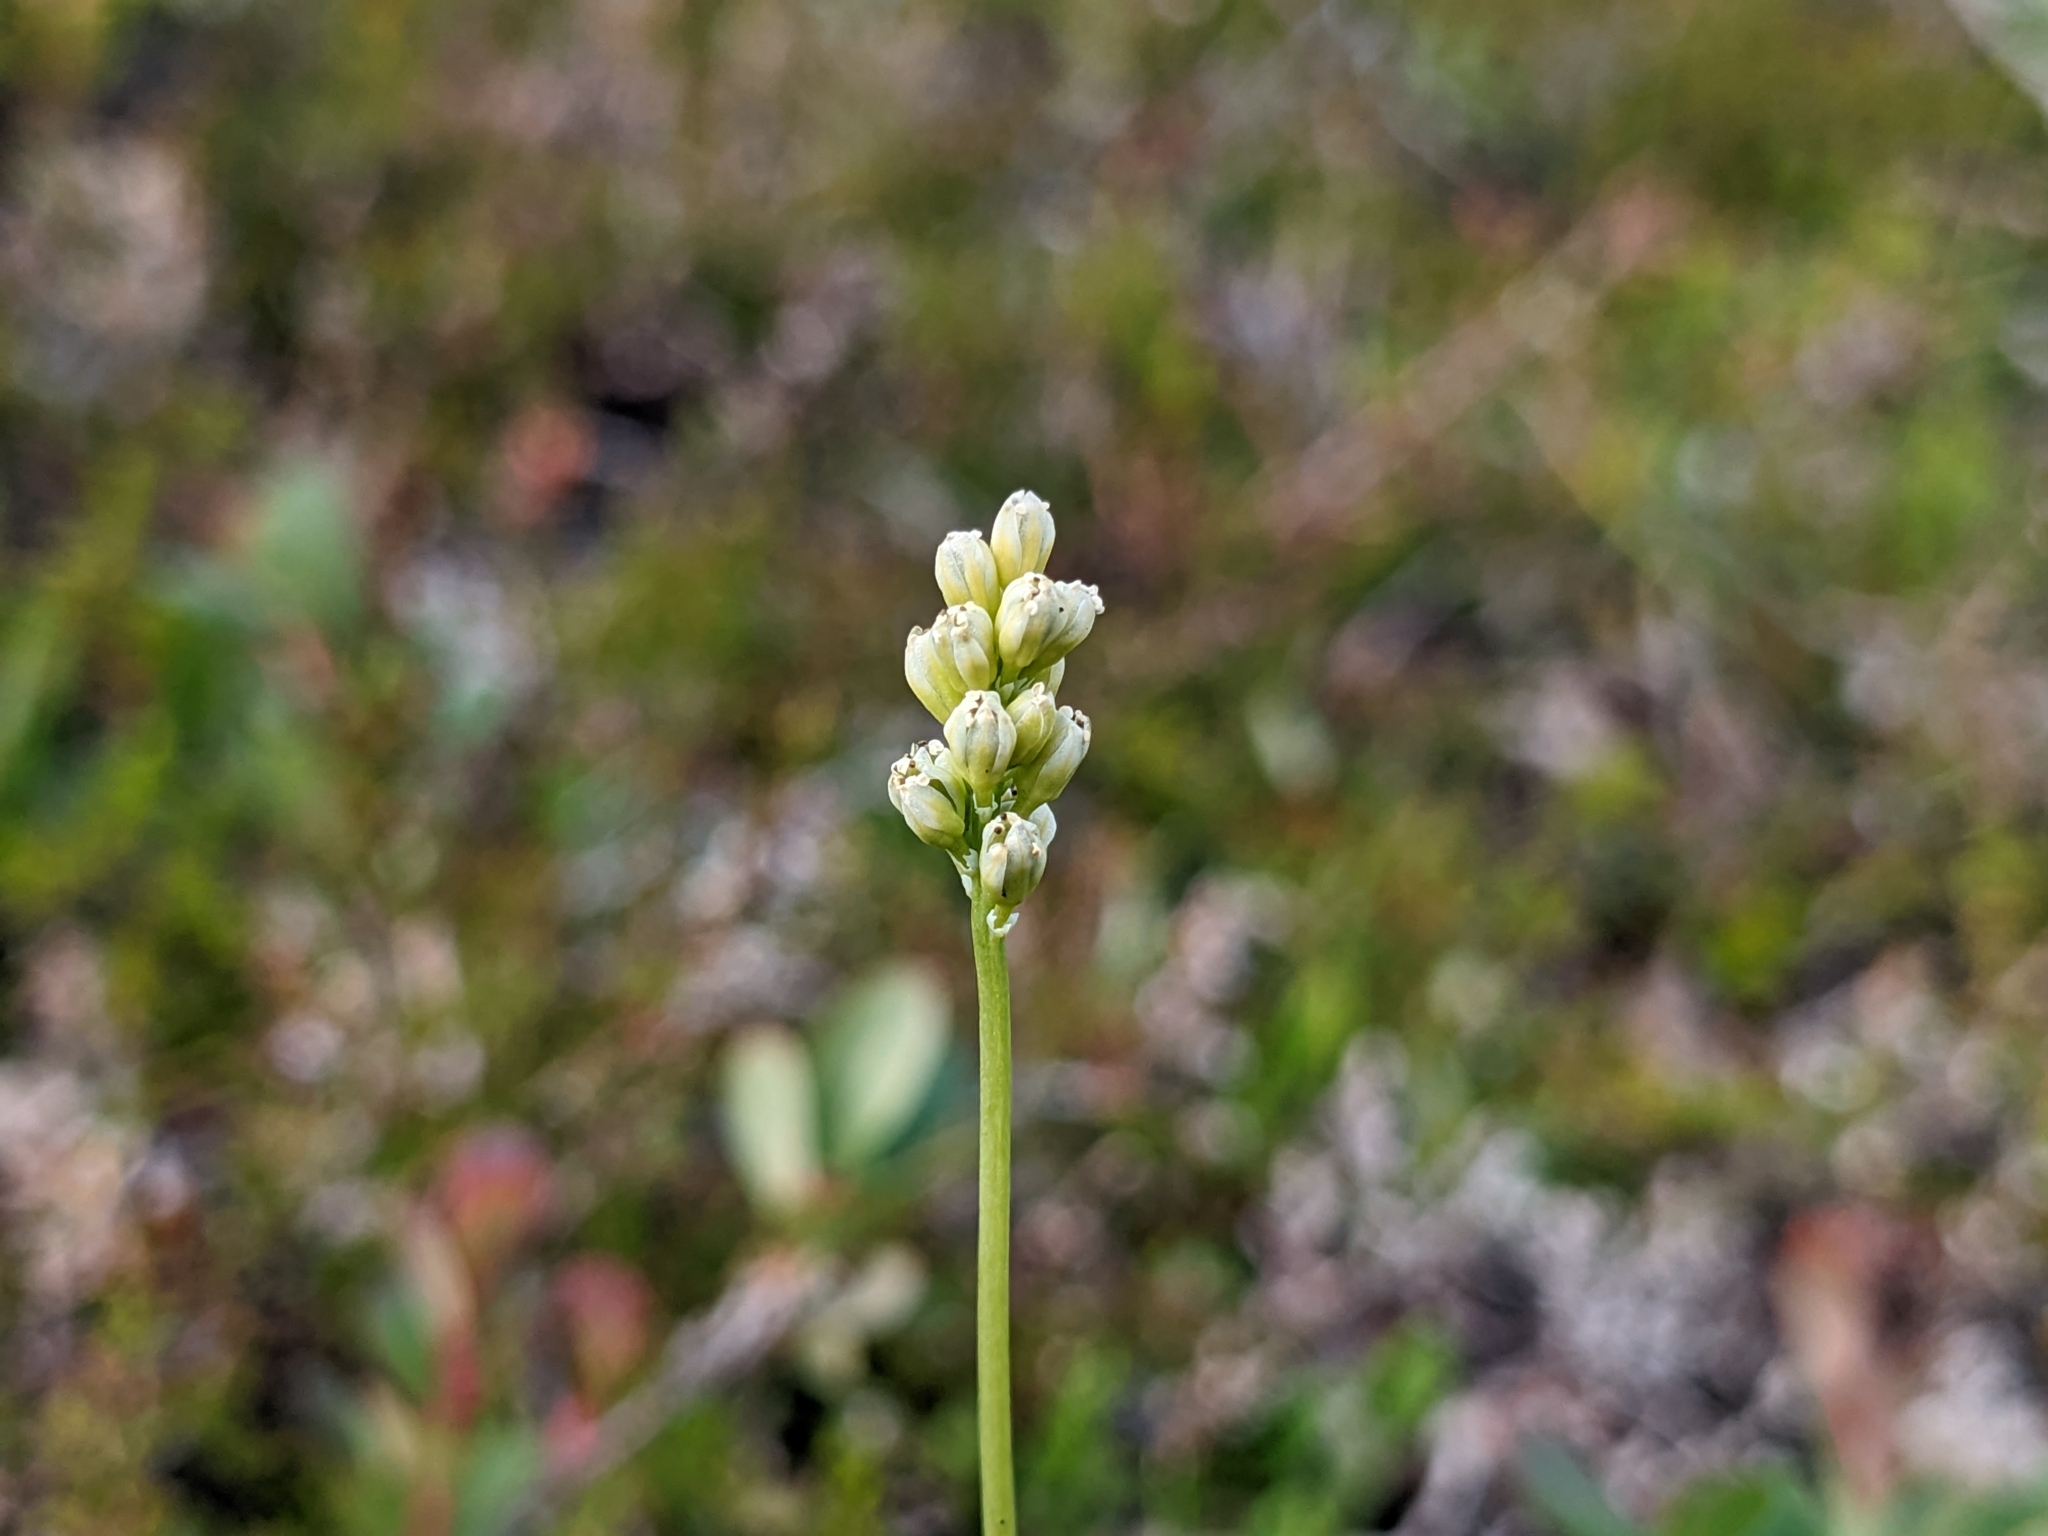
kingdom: Plantae
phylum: Tracheophyta
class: Liliopsida
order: Alismatales
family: Tofieldiaceae
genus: Tofieldia
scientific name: Tofieldia pusilla
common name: Scottish false asphodel
